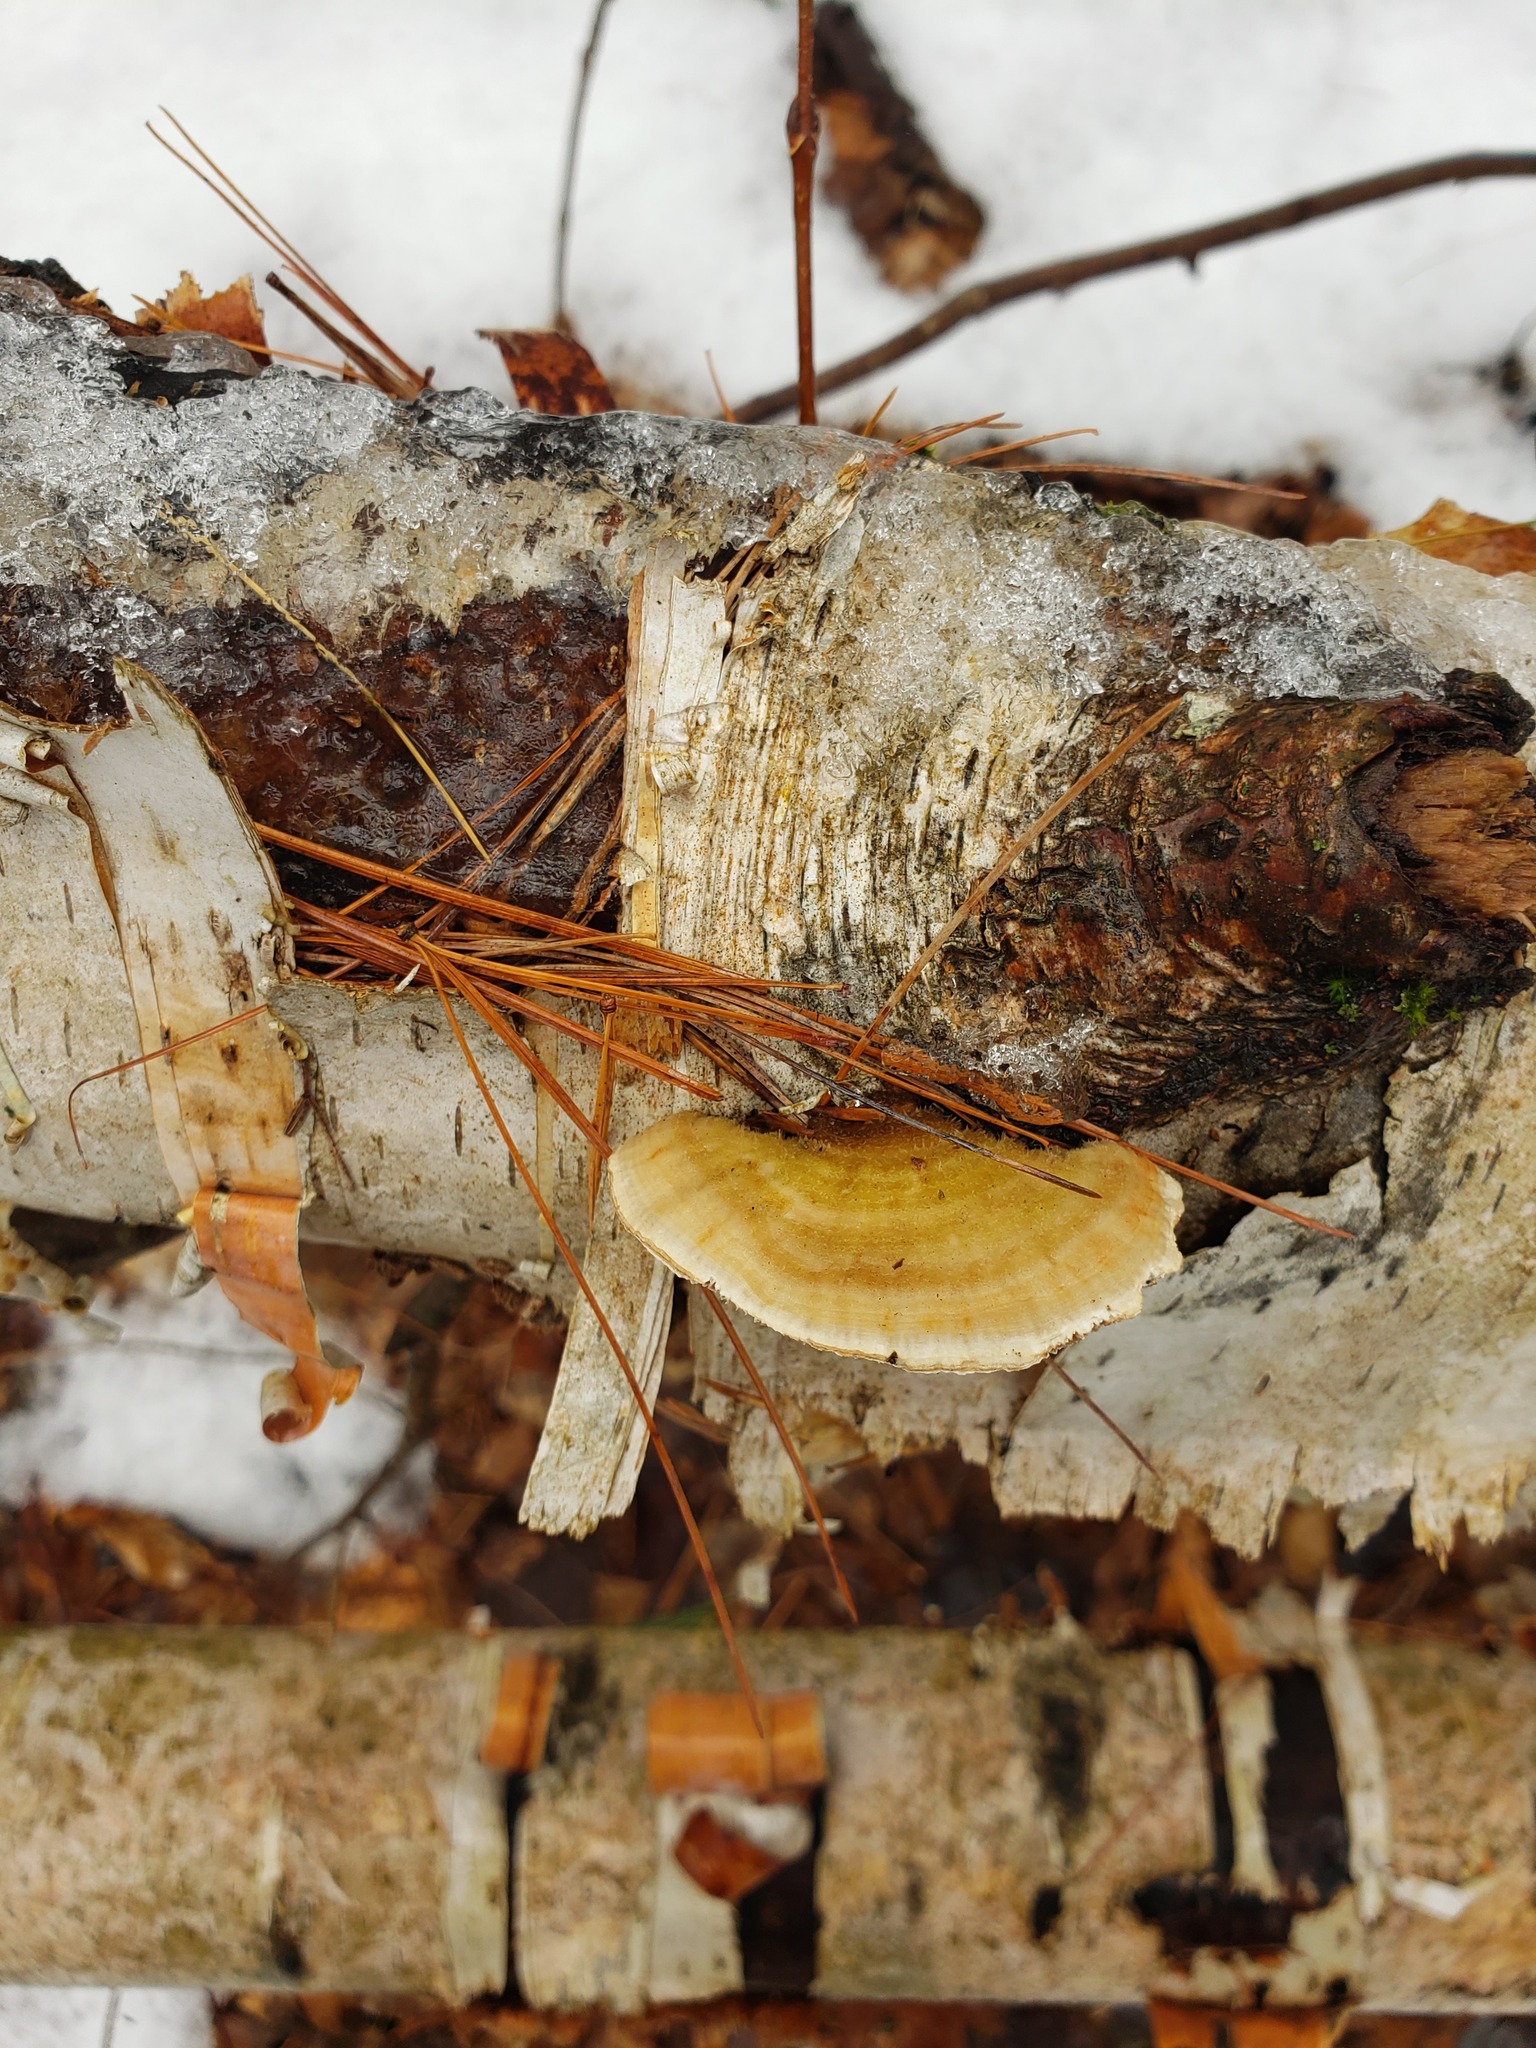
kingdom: Fungi
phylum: Basidiomycota
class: Agaricomycetes
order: Polyporales
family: Polyporaceae
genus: Lenzites
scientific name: Lenzites betulinus
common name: Birch mazegill
